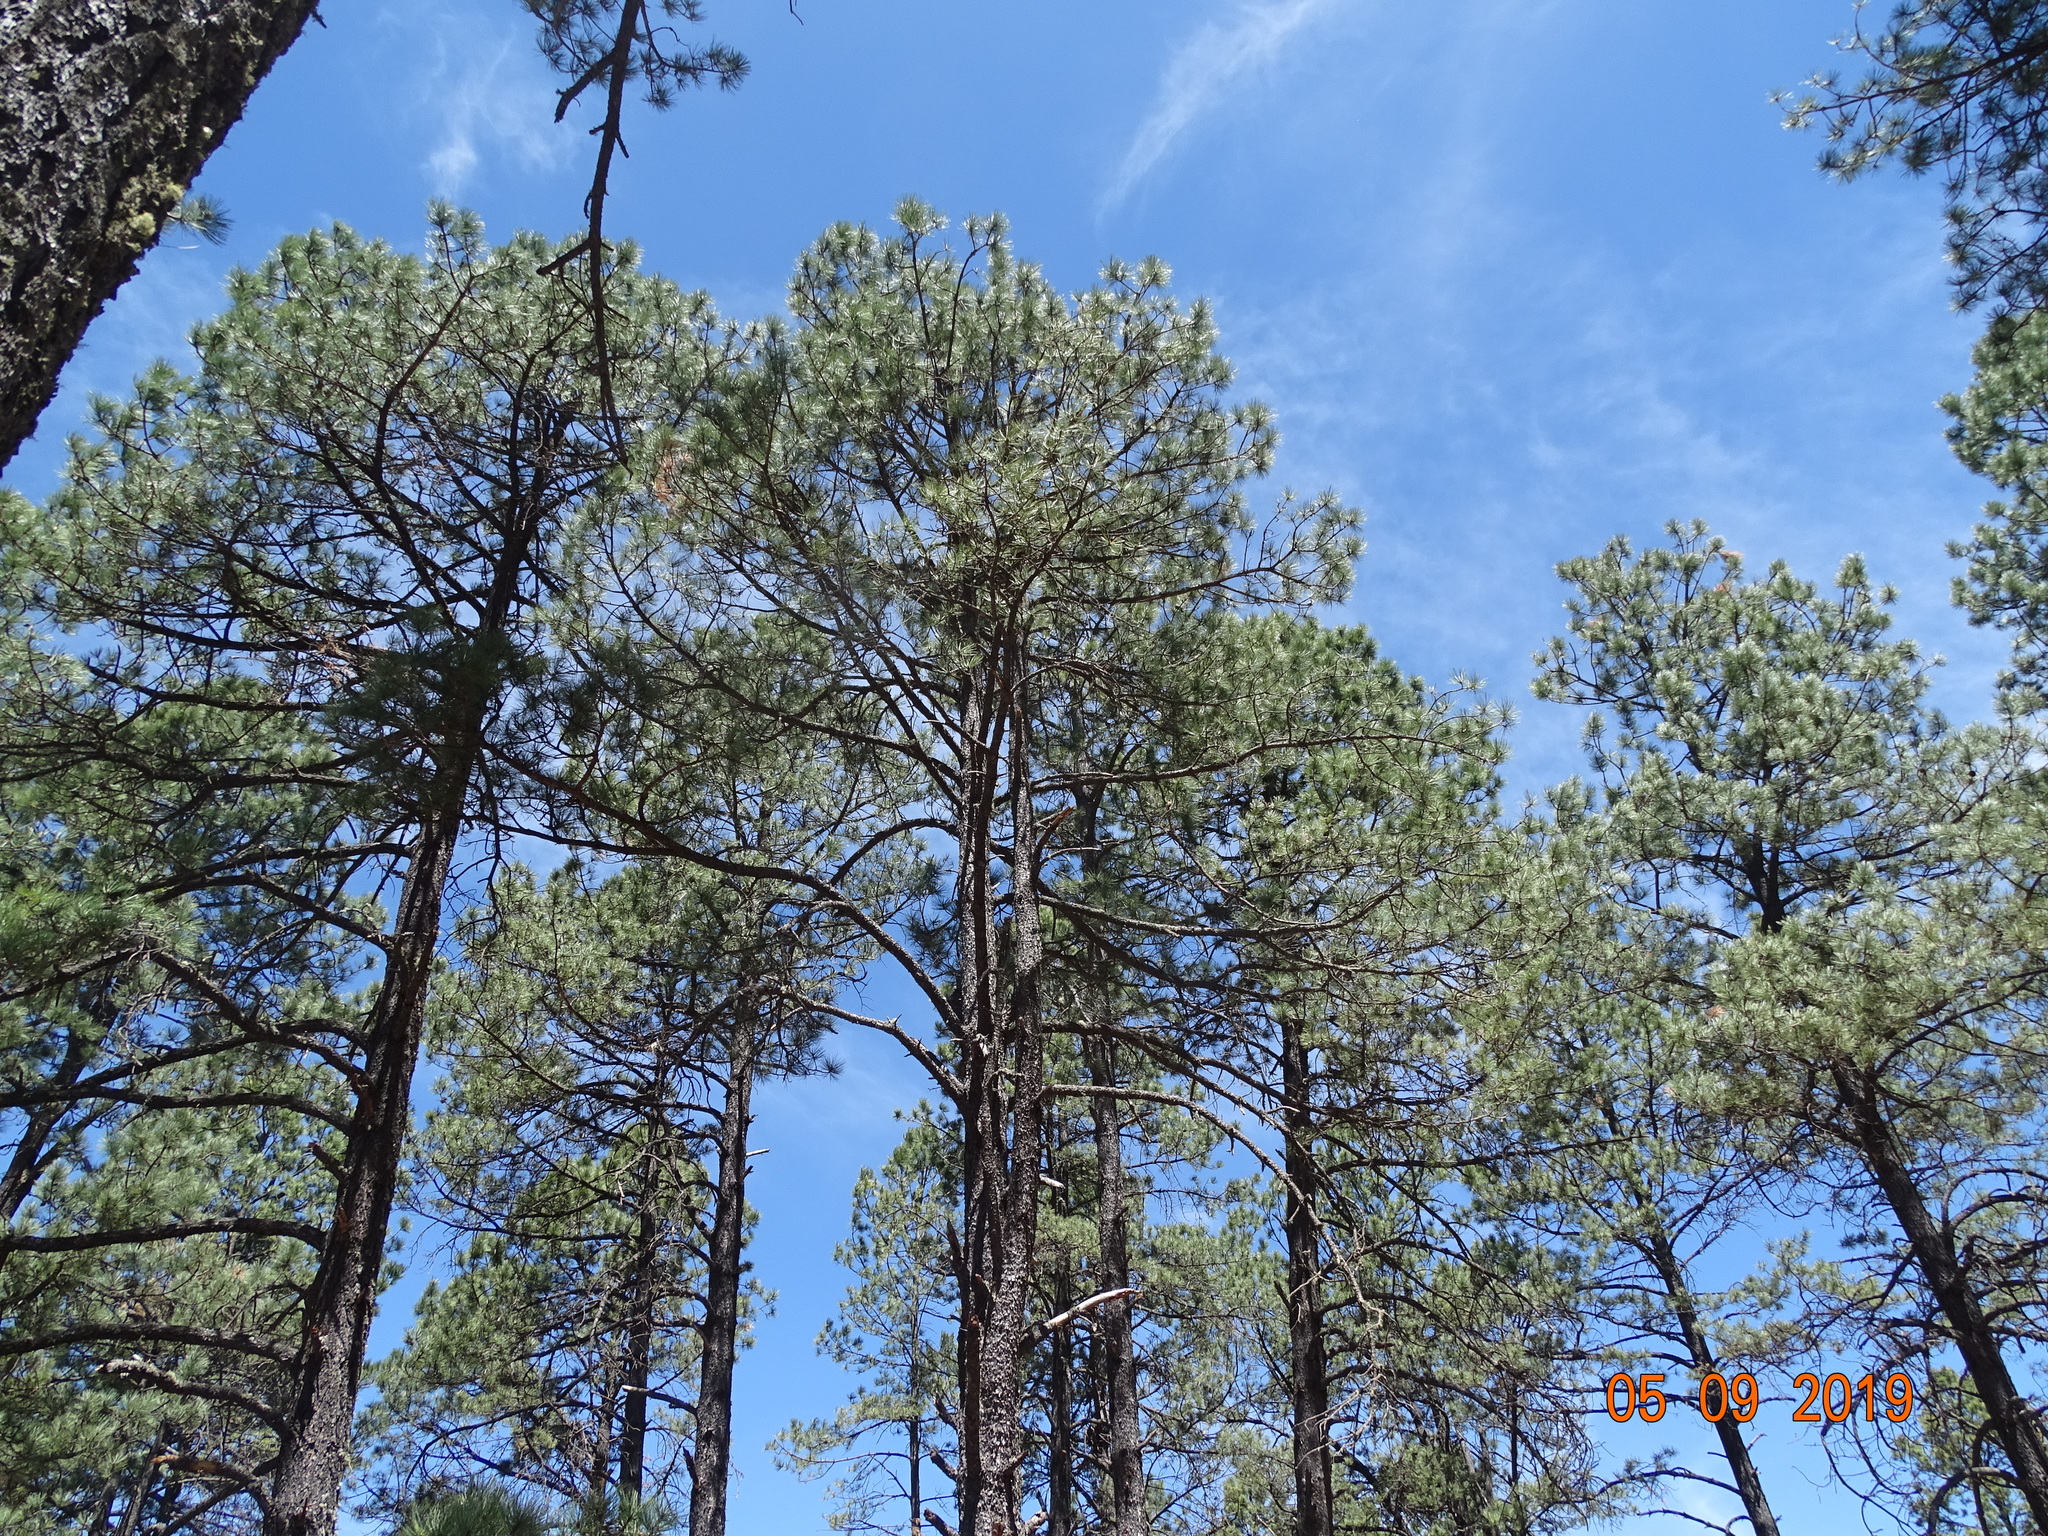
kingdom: Plantae
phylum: Tracheophyta
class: Pinopsida
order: Pinales
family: Pinaceae
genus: Pinus
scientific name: Pinus arizonica
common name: Arizona pine
